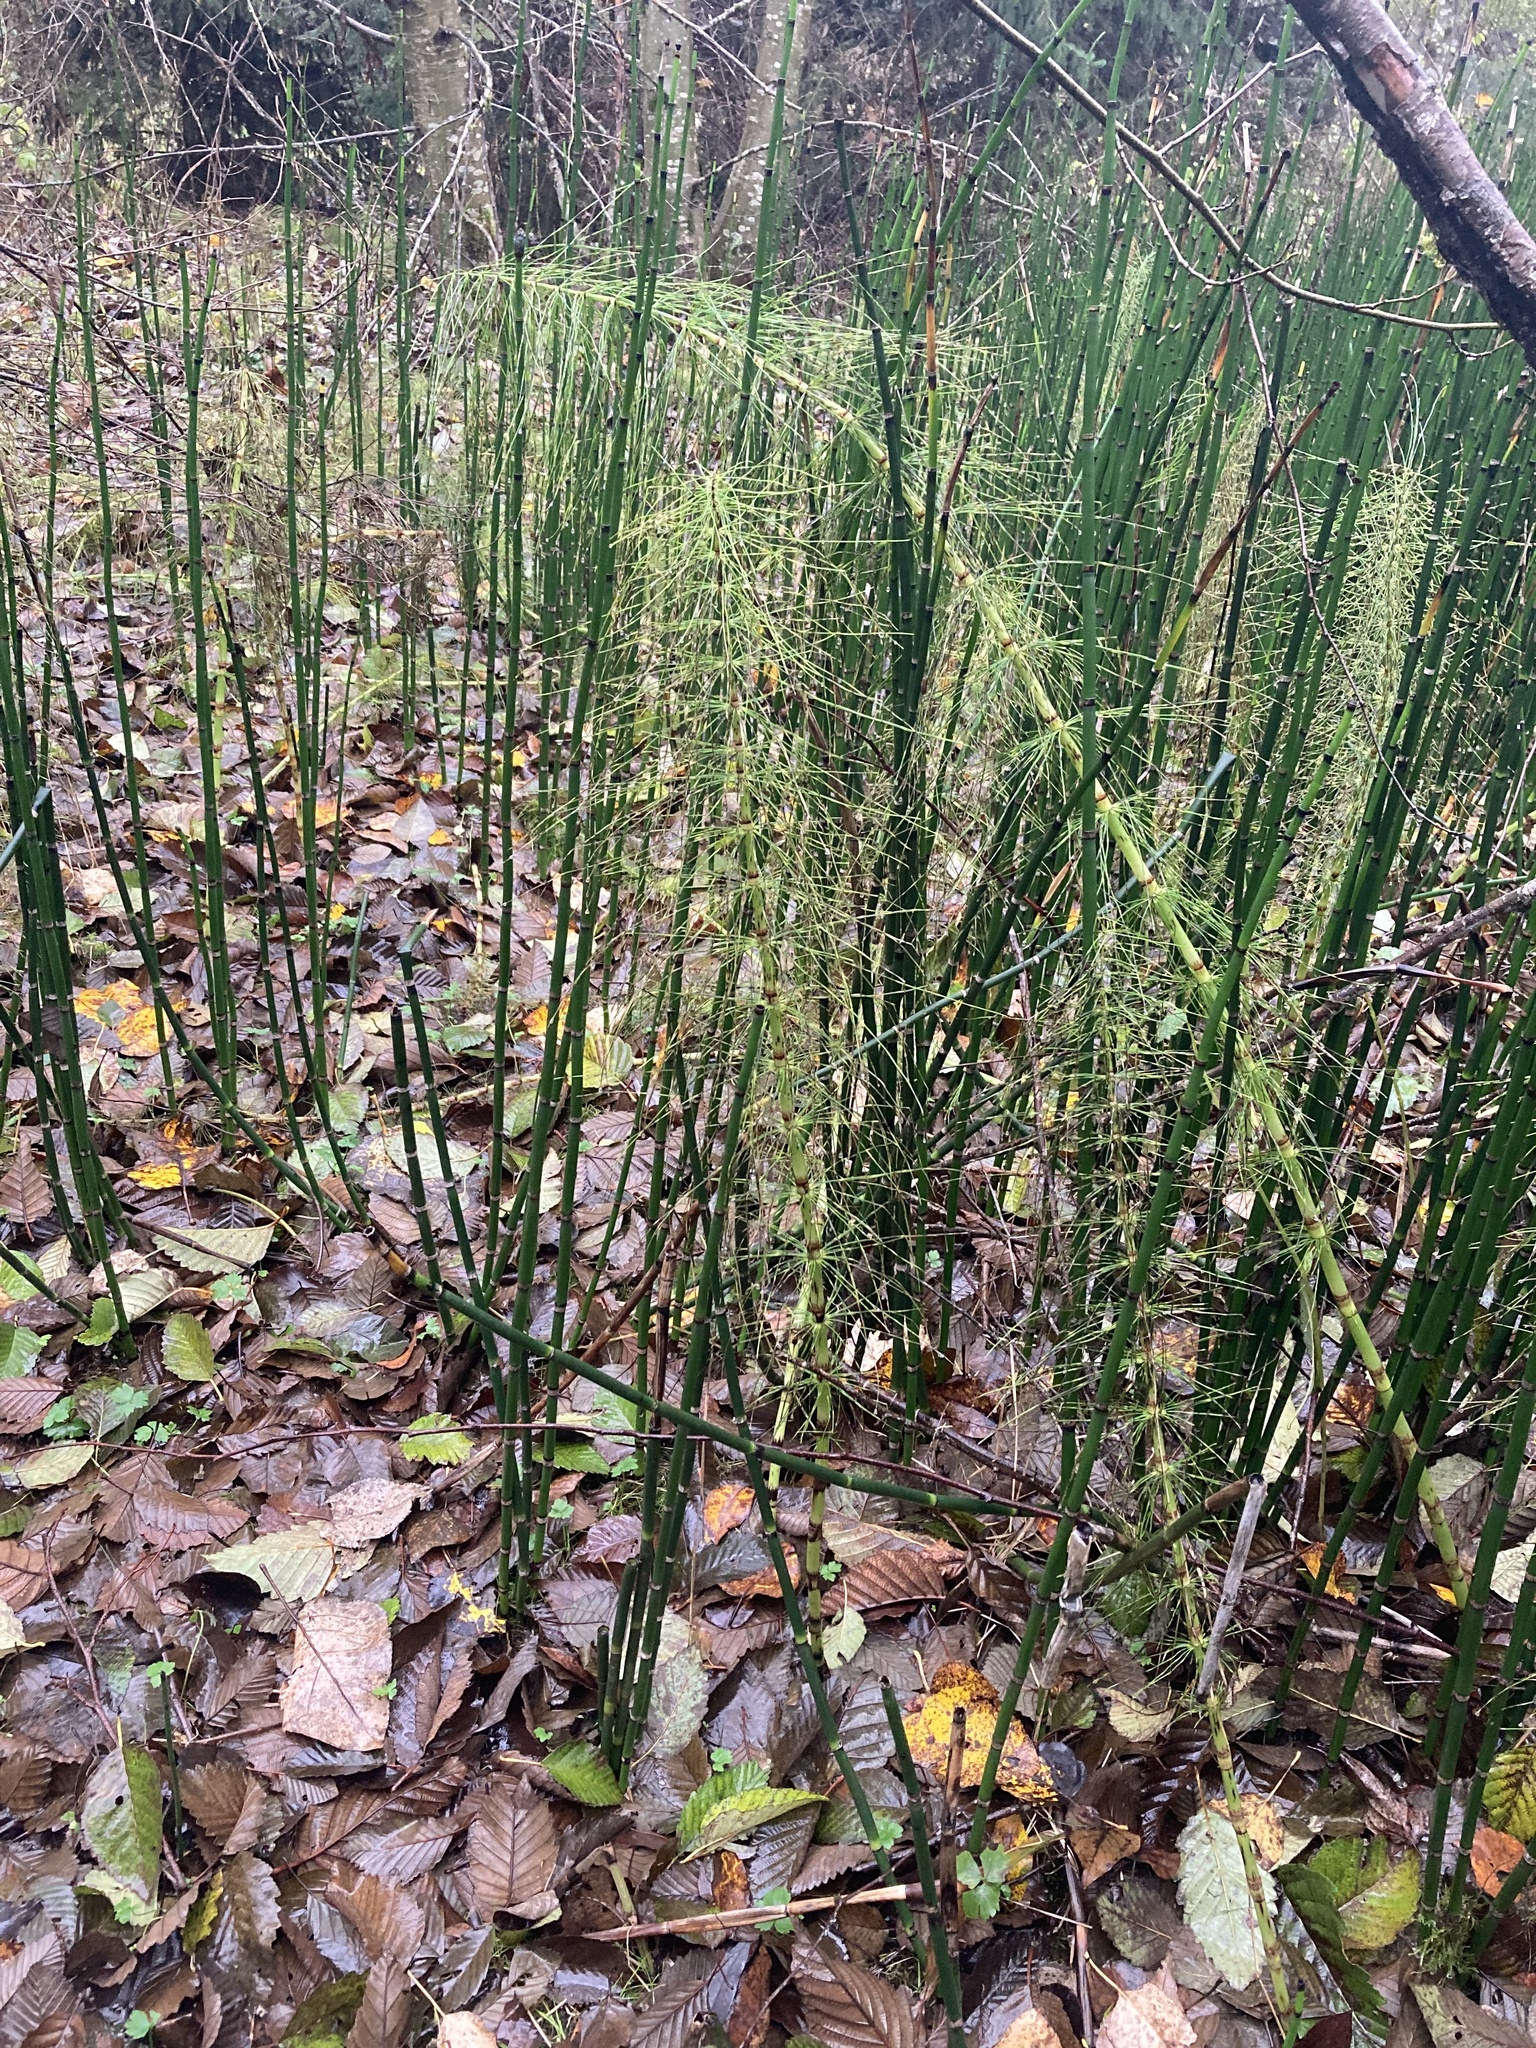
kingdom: Plantae
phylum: Tracheophyta
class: Polypodiopsida
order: Equisetales
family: Equisetaceae
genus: Equisetum
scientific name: Equisetum telmateia
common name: Great horsetail
